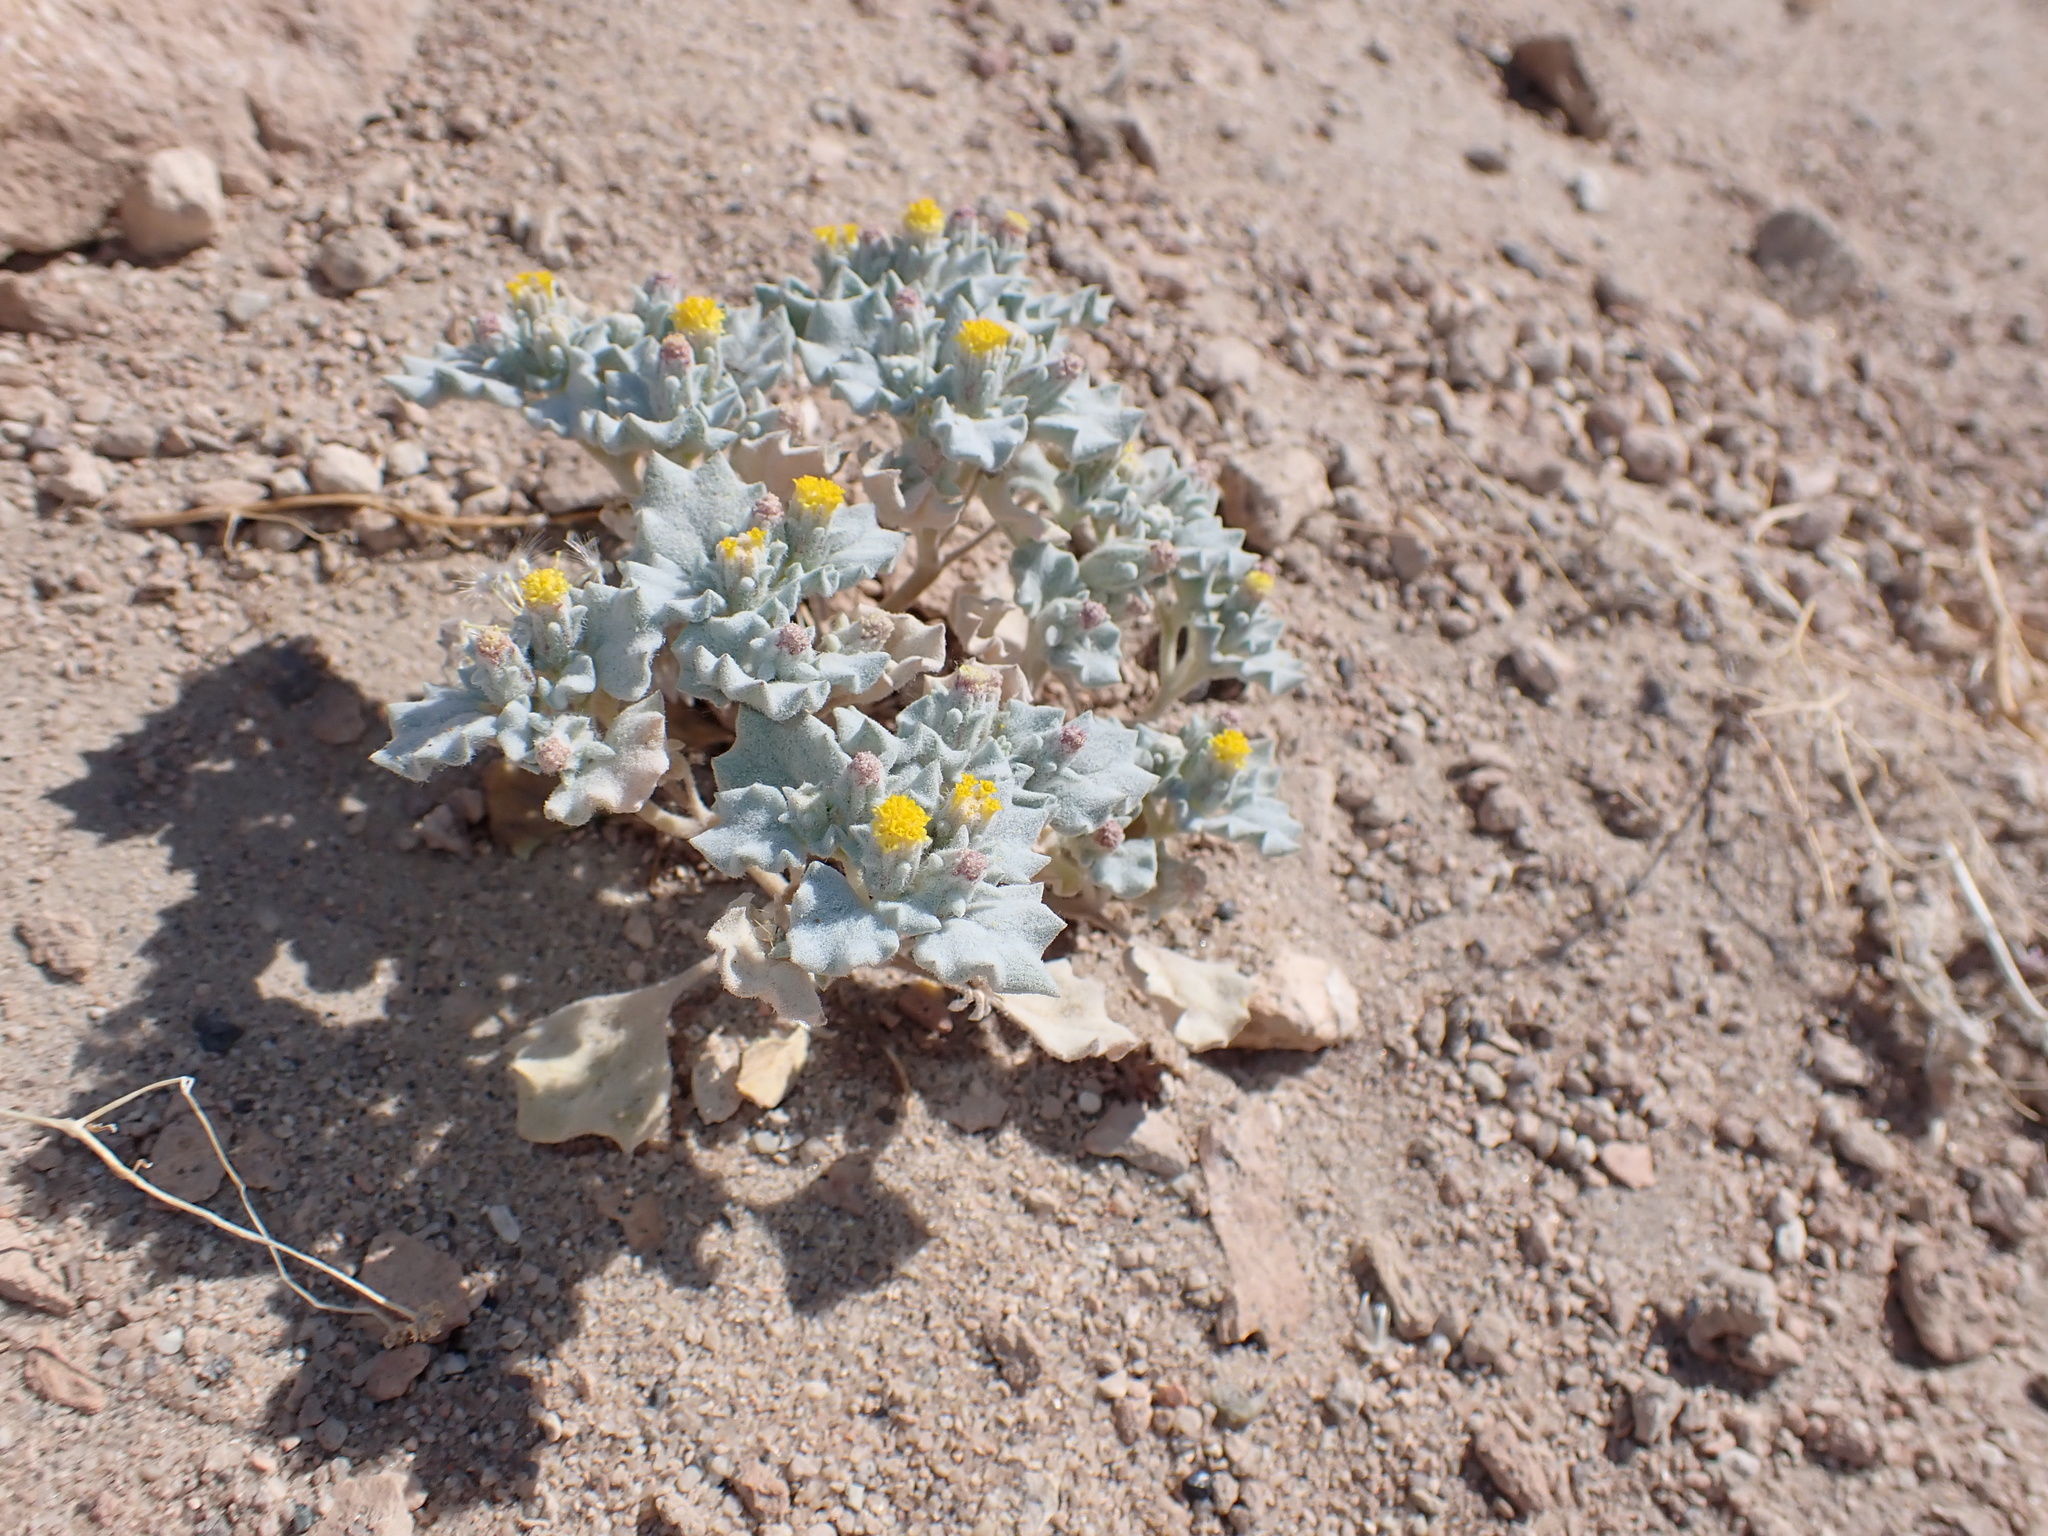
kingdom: Plantae
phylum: Tracheophyta
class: Magnoliopsida
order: Asterales
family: Asteraceae
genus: Psathyrotes
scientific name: Psathyrotes annua
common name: Mealy rosettes
